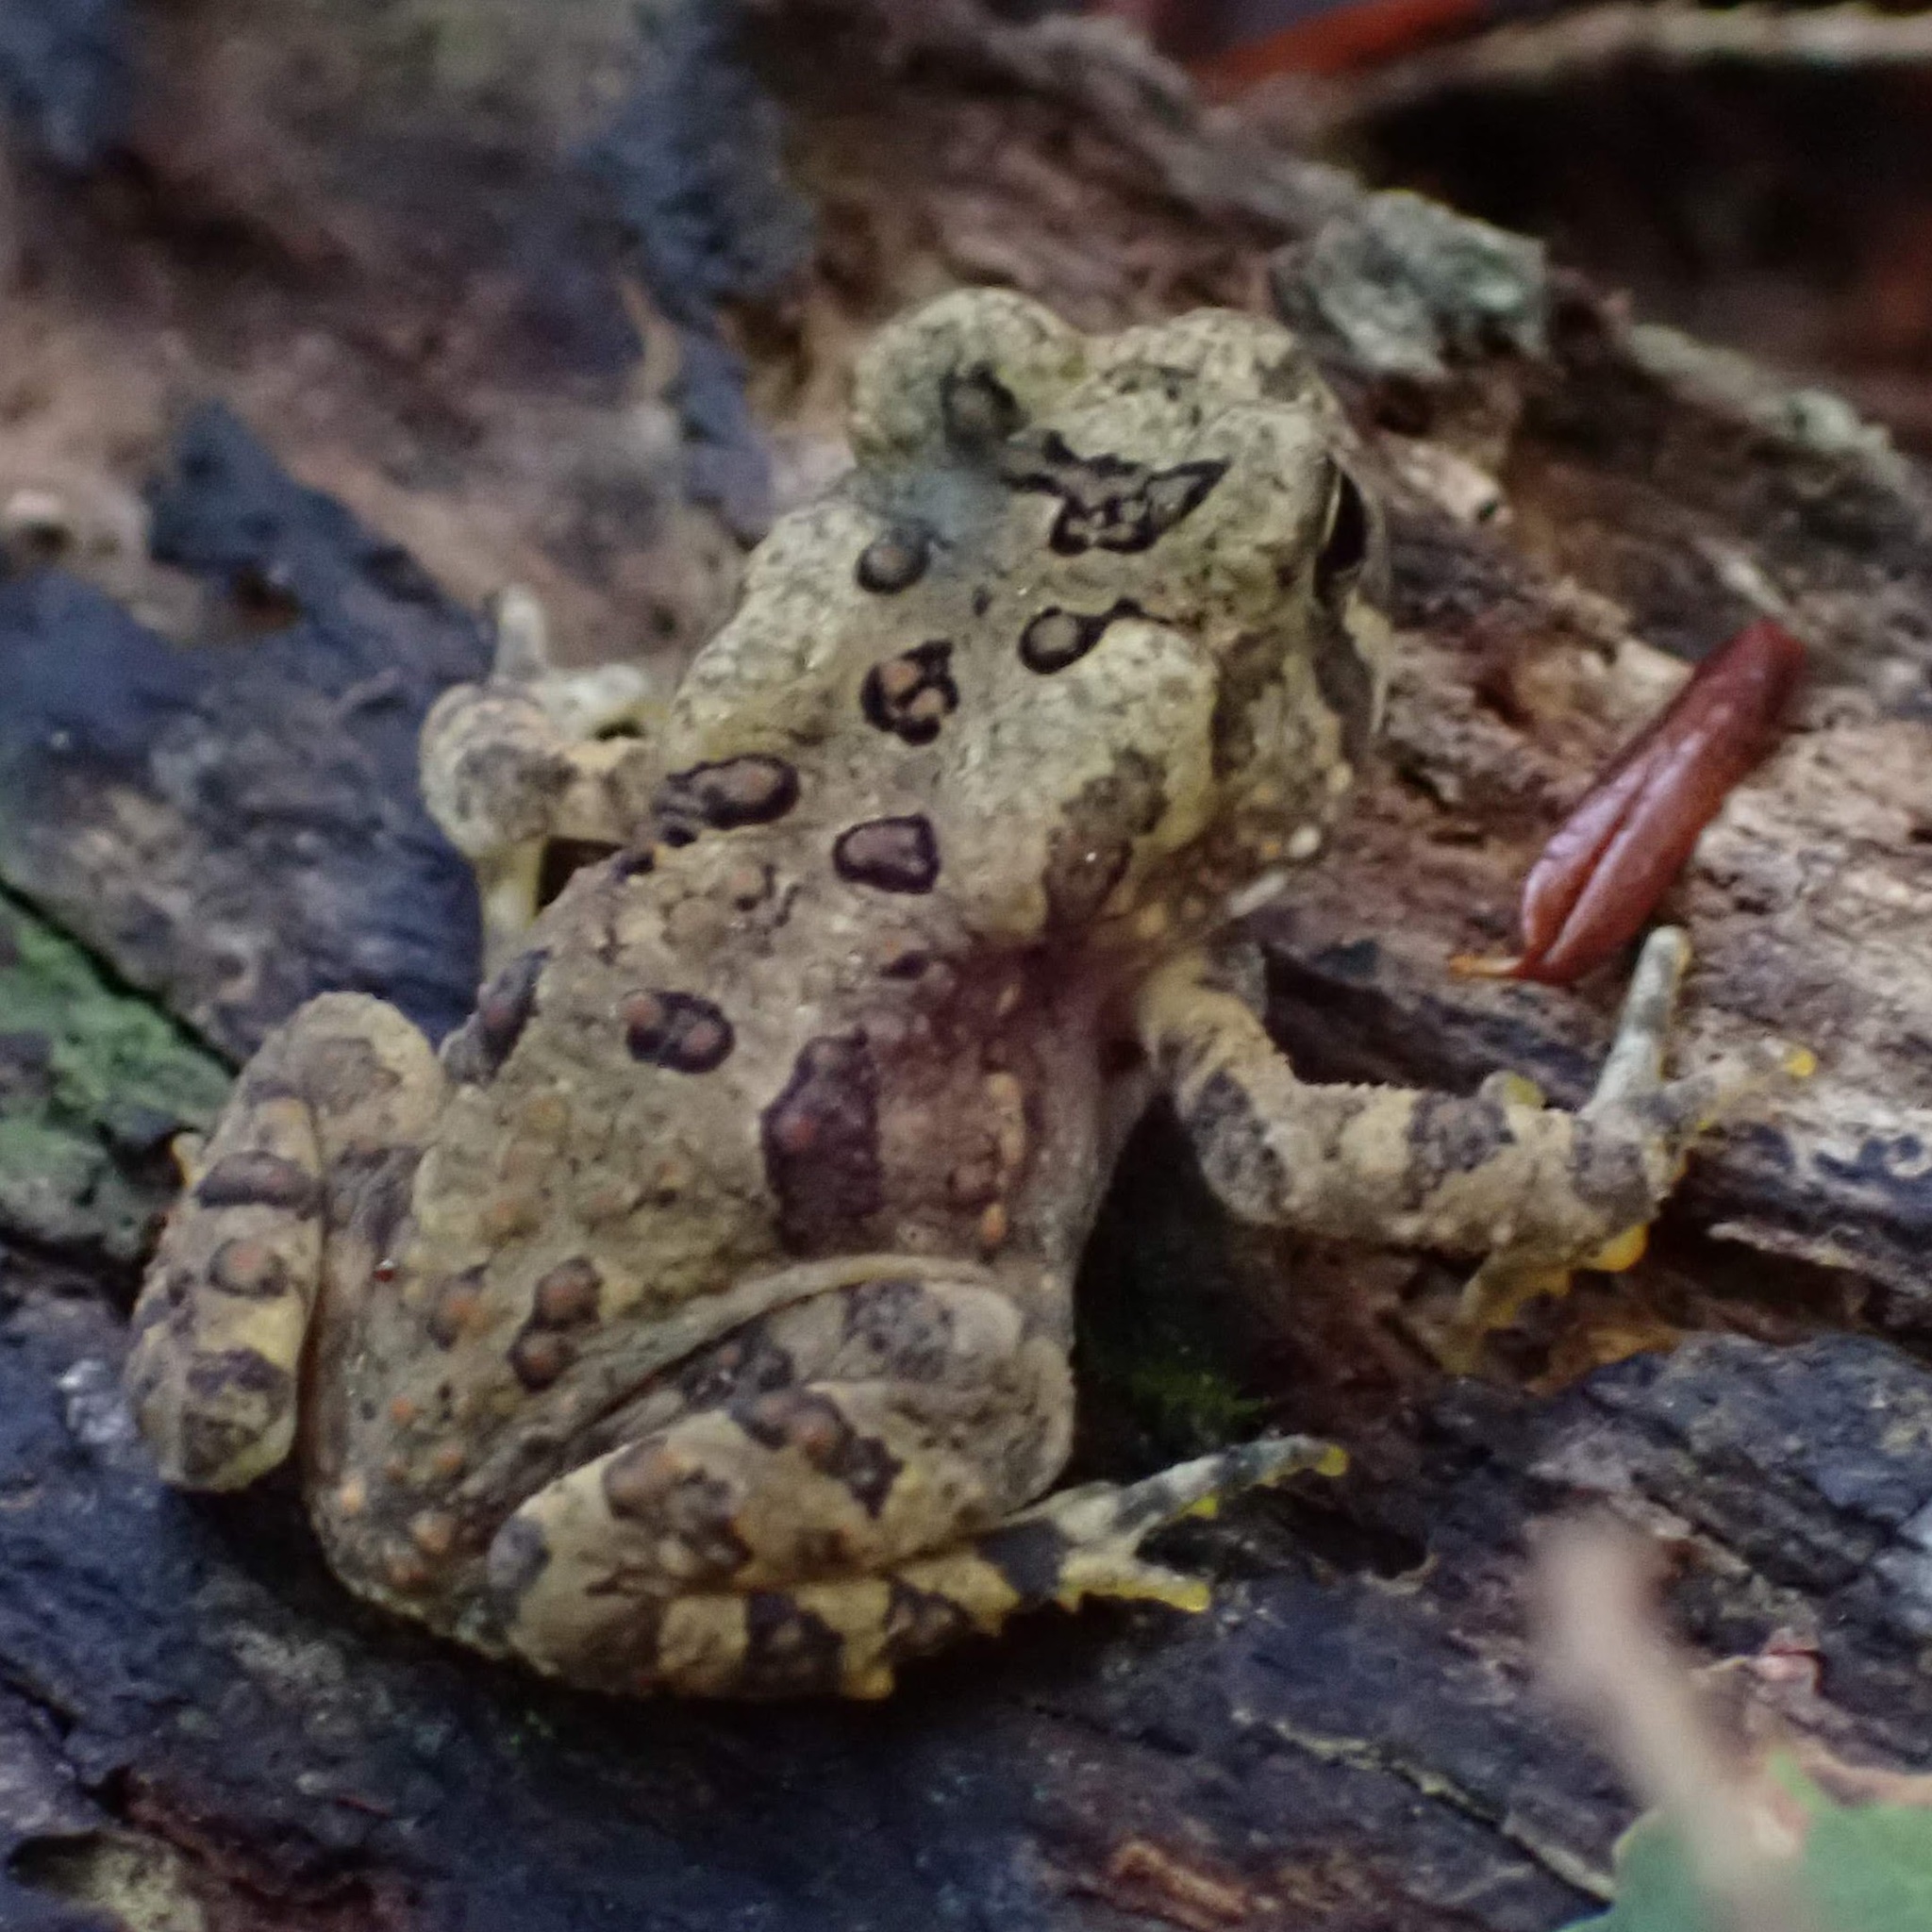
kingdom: Animalia
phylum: Chordata
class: Amphibia
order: Anura
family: Bufonidae
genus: Anaxyrus
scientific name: Anaxyrus americanus
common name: American toad
